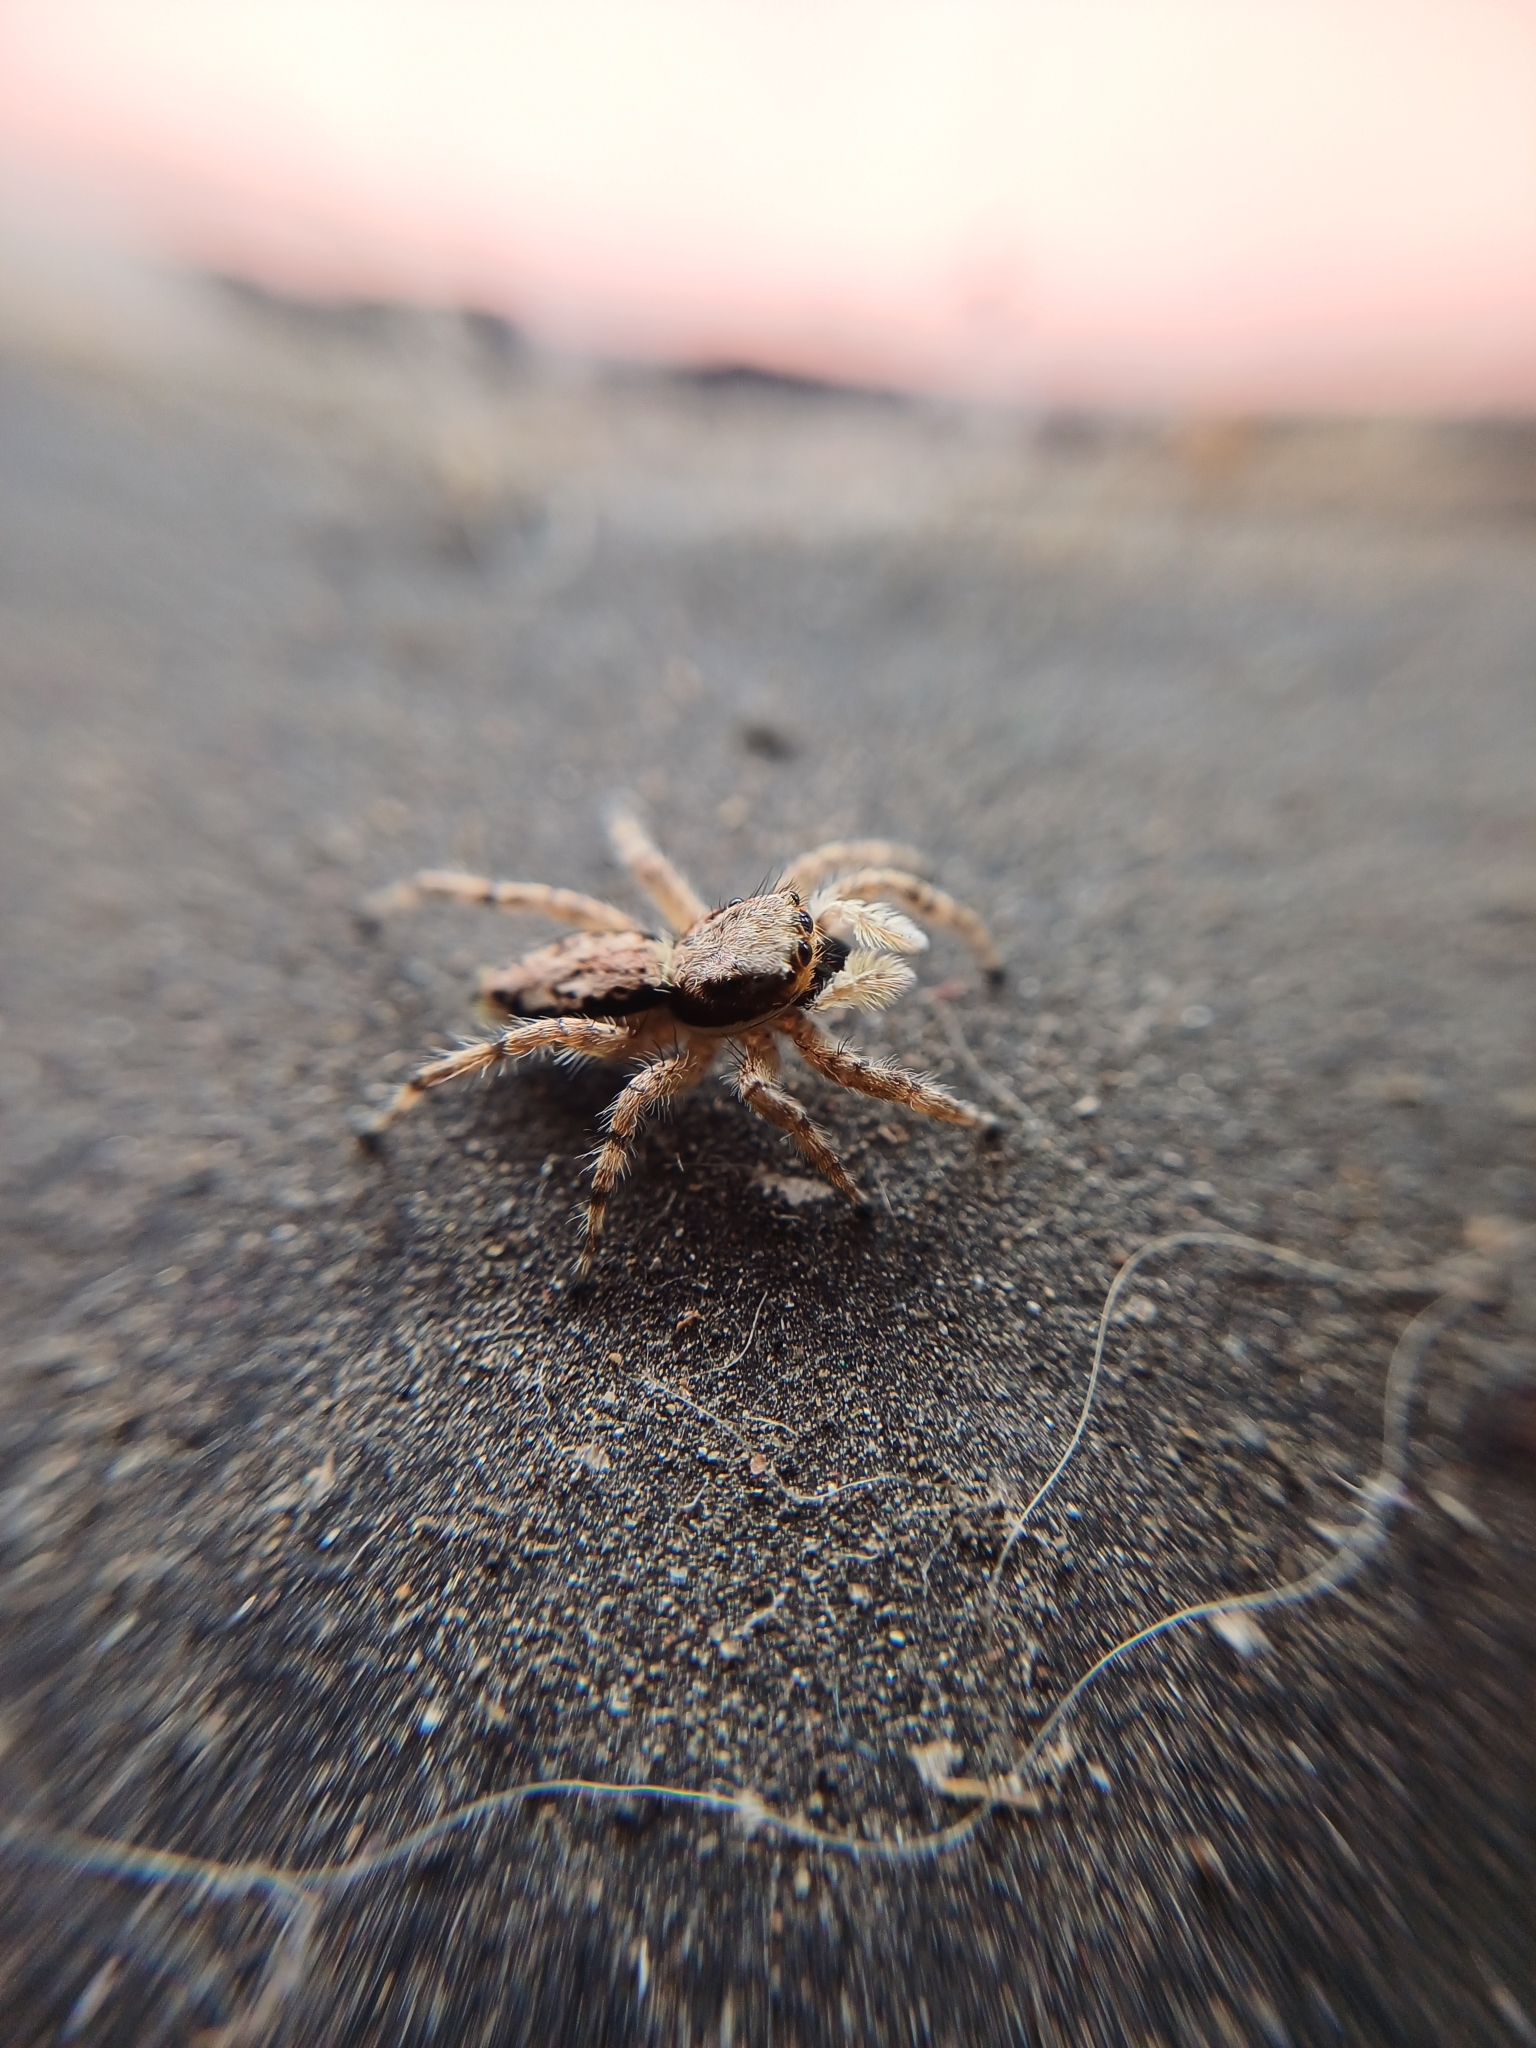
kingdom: Animalia
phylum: Arthropoda
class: Arachnida
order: Araneae
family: Salticidae
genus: Menemerus
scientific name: Menemerus bivittatus
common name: Gray wall jumper
